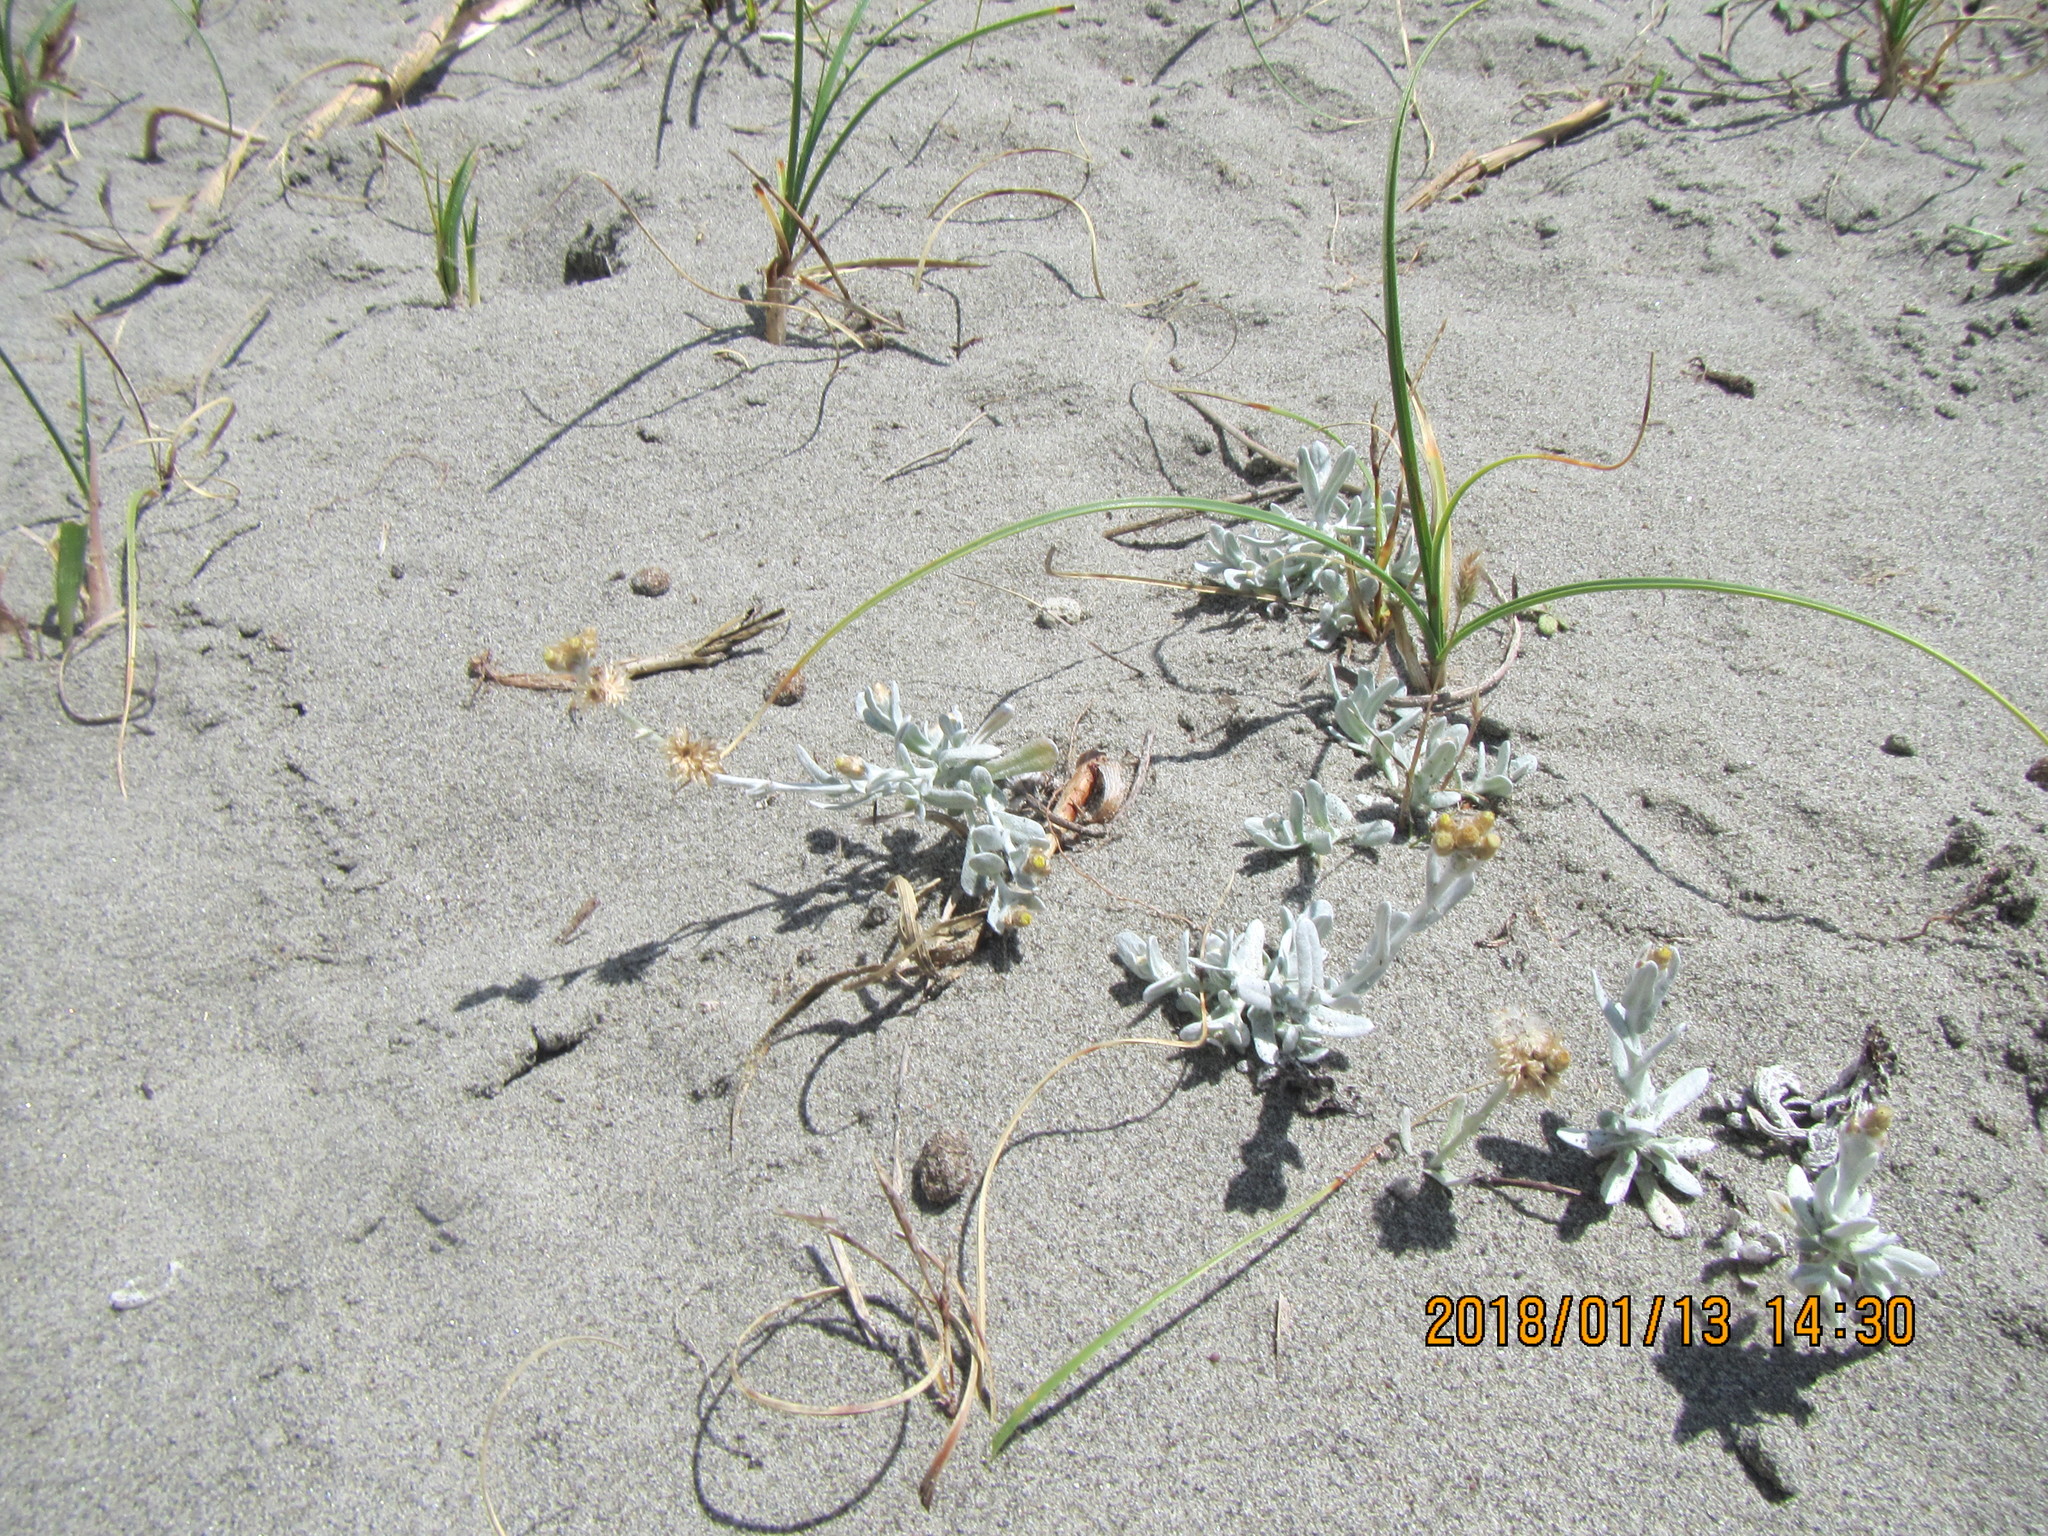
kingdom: Plantae
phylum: Tracheophyta
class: Magnoliopsida
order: Asterales
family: Asteraceae
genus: Helichrysum
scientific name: Helichrysum luteoalbum
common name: Daisy
